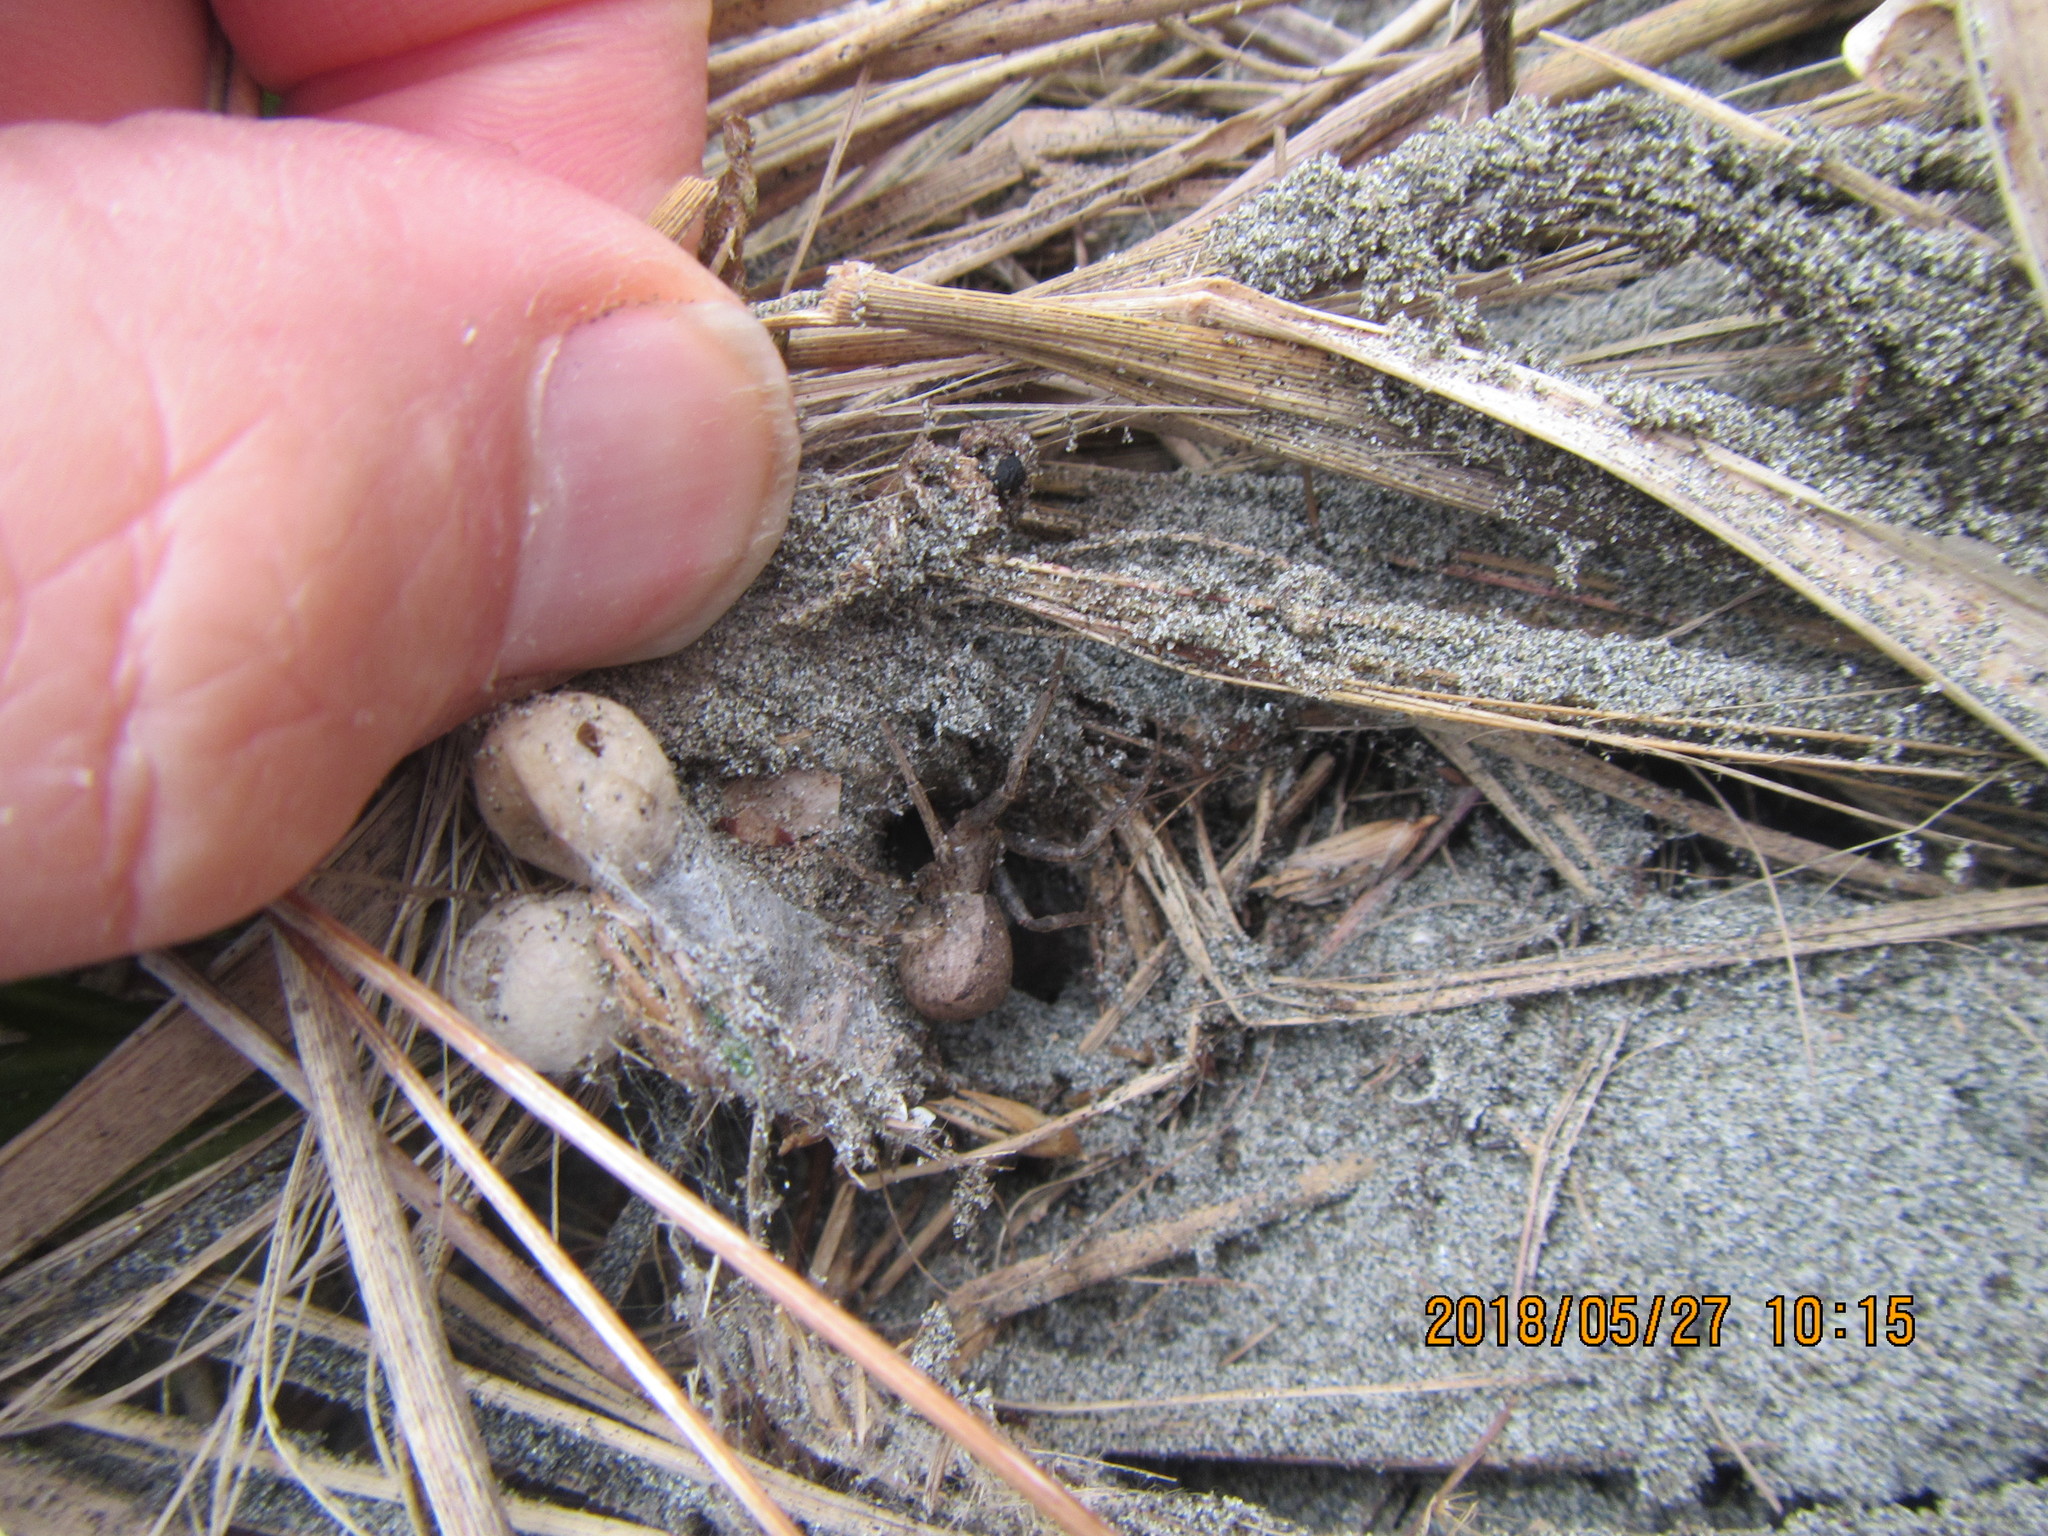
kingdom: Animalia
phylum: Arthropoda
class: Arachnida
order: Araneae
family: Thomisidae
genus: Sidymella
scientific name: Sidymella trapezia
